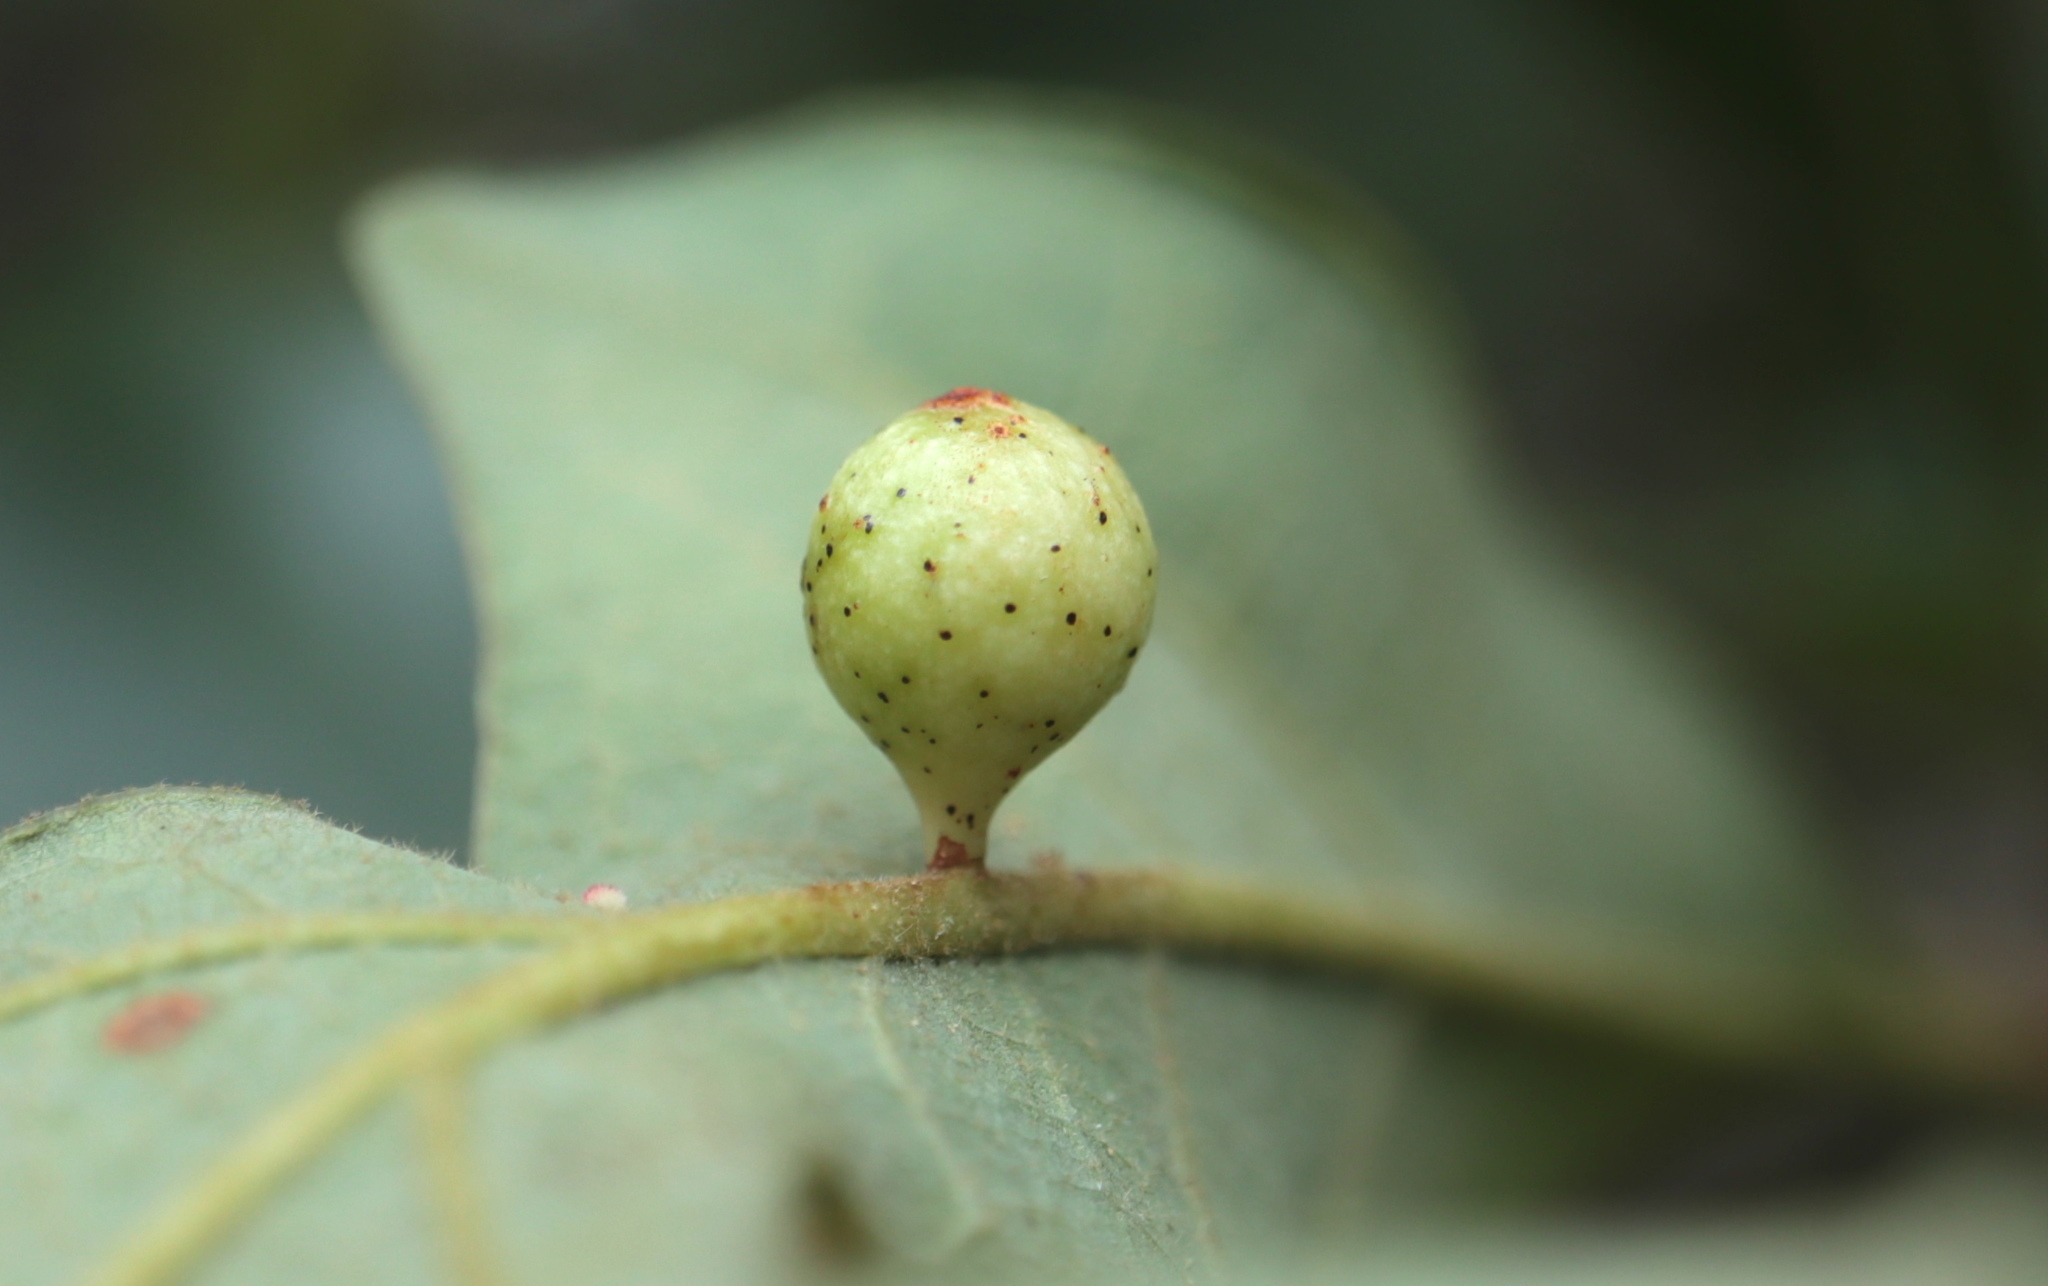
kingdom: Animalia
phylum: Arthropoda
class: Insecta
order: Hymenoptera
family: Cynipidae
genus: Andricus
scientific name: Andricus
